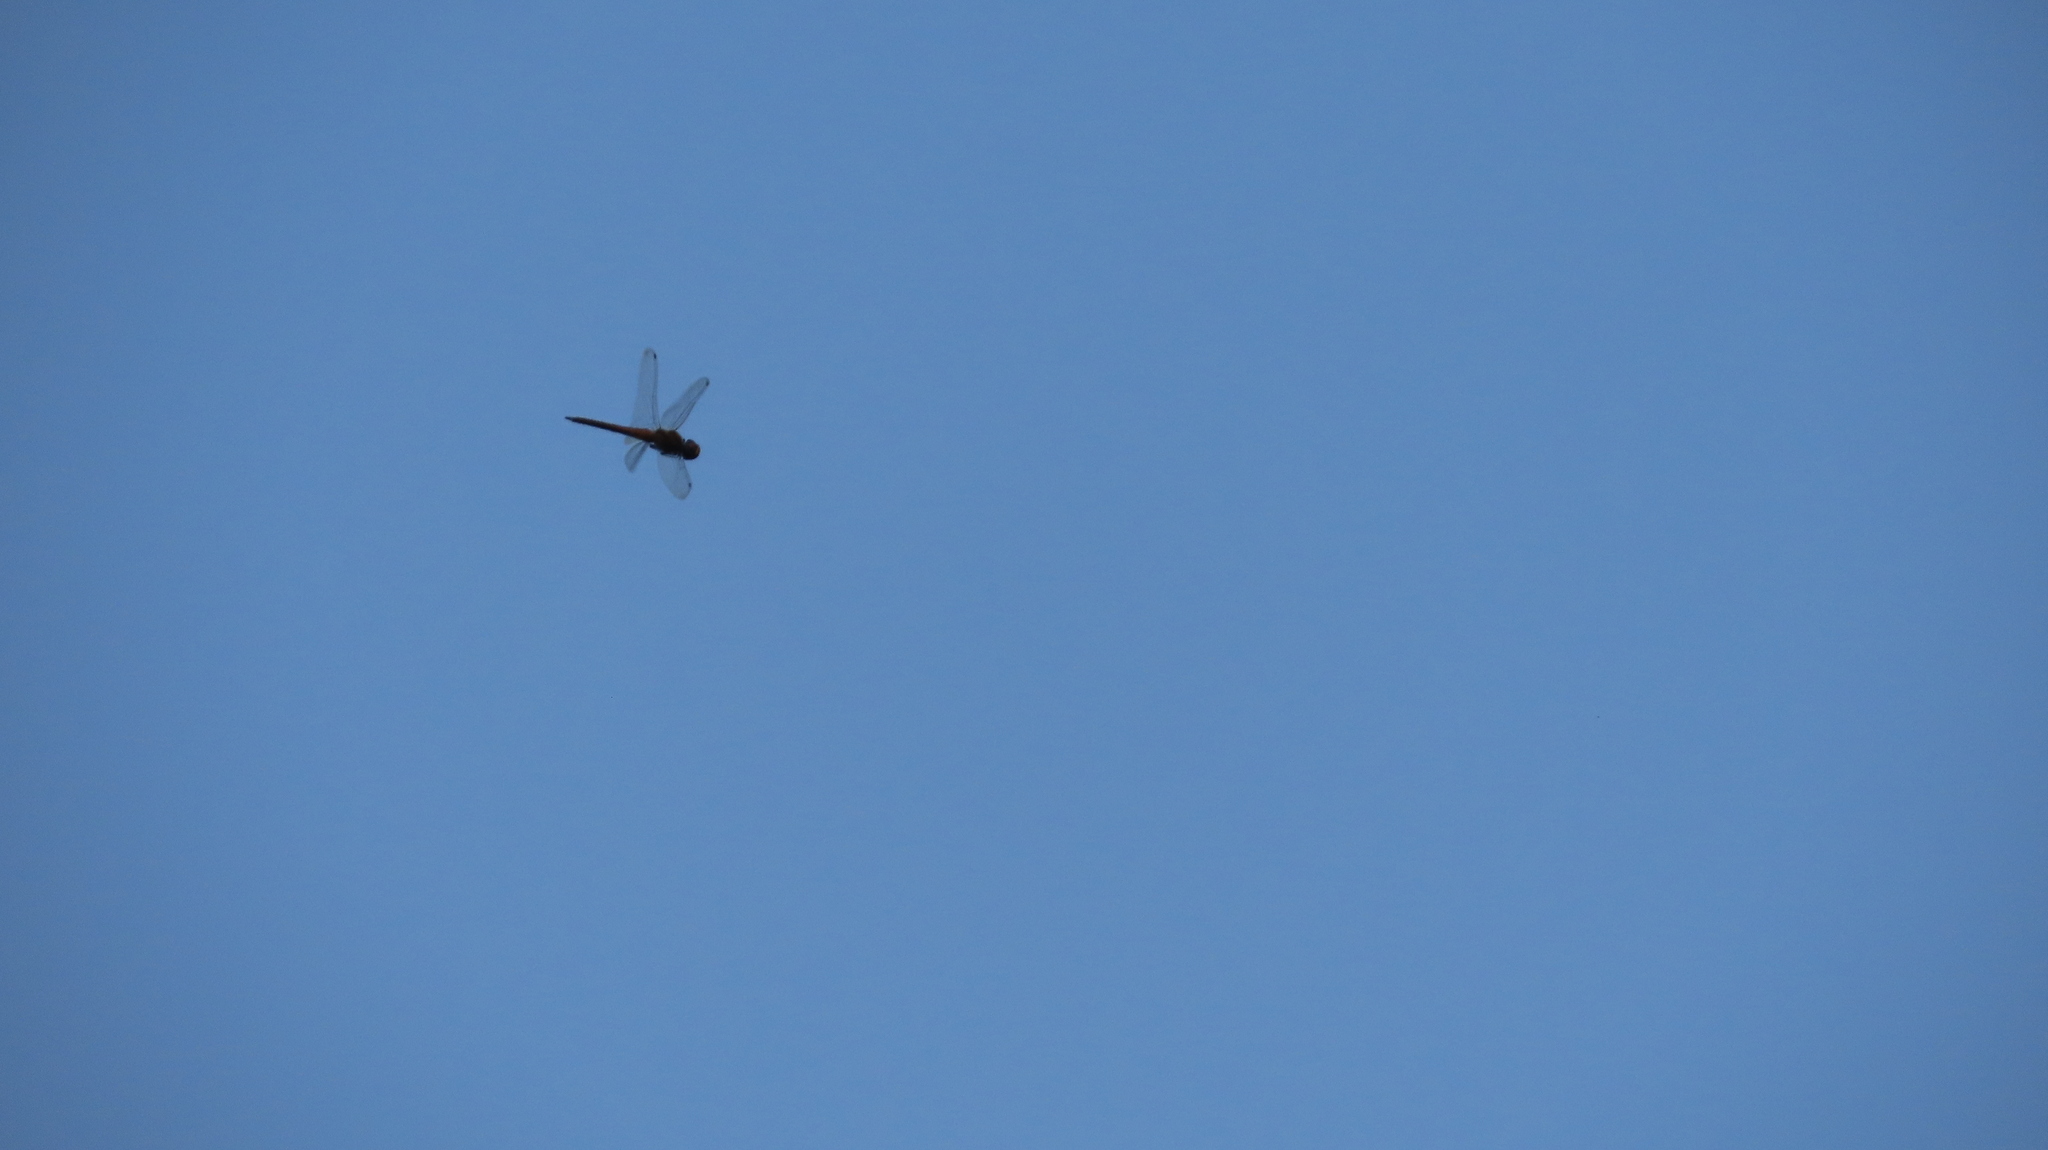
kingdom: Animalia
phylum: Arthropoda
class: Insecta
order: Odonata
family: Libellulidae
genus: Pantala
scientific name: Pantala flavescens
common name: Wandering glider
